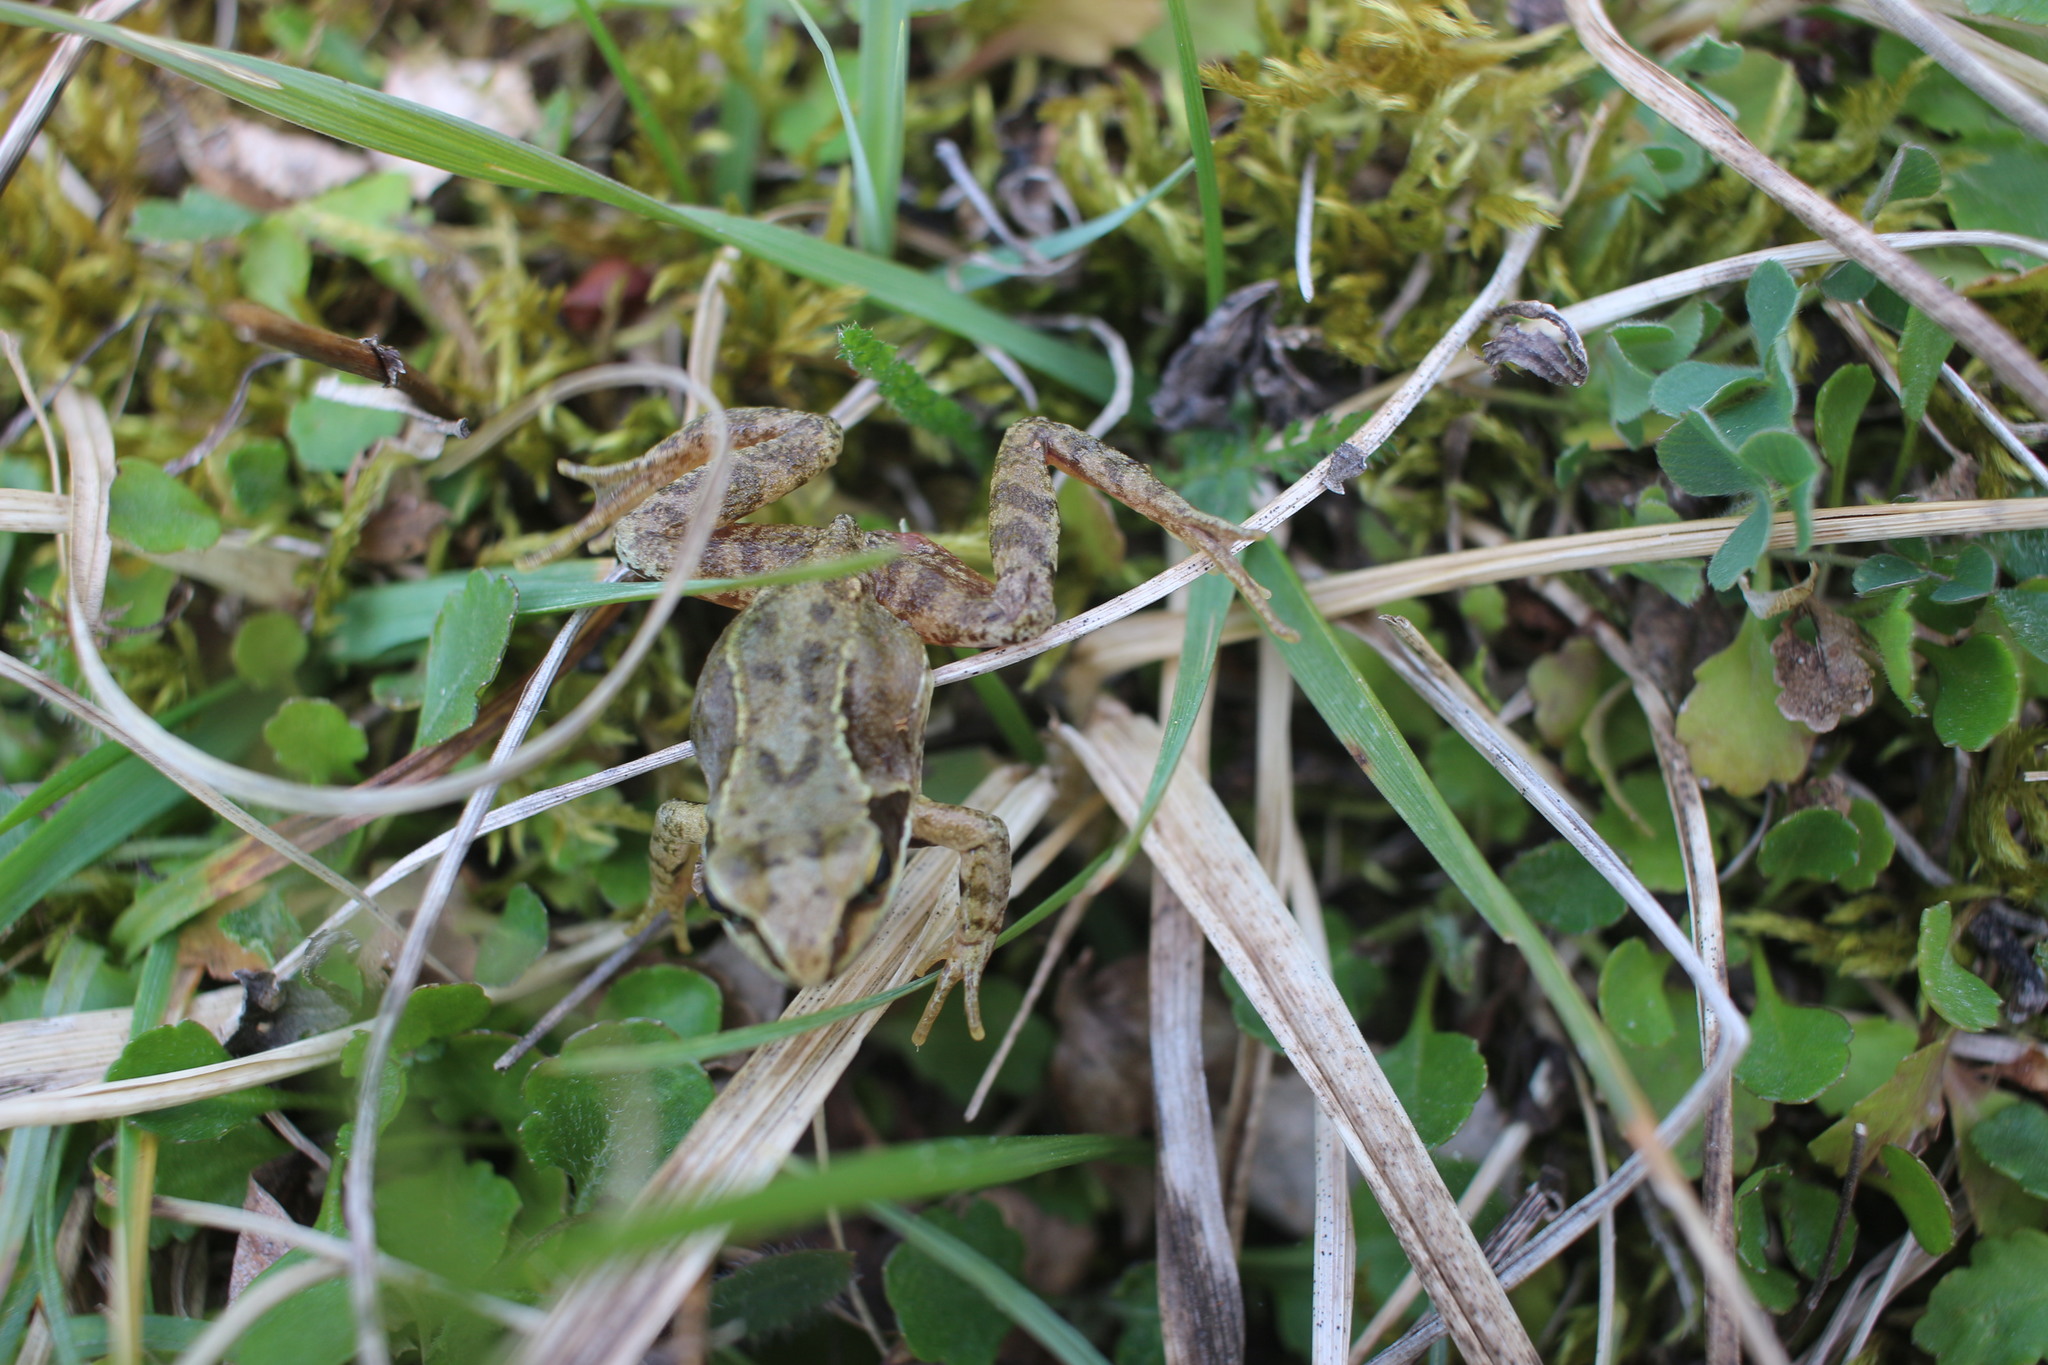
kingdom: Animalia
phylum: Chordata
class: Amphibia
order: Anura
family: Ranidae
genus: Rana
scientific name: Rana temporaria
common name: Common frog
